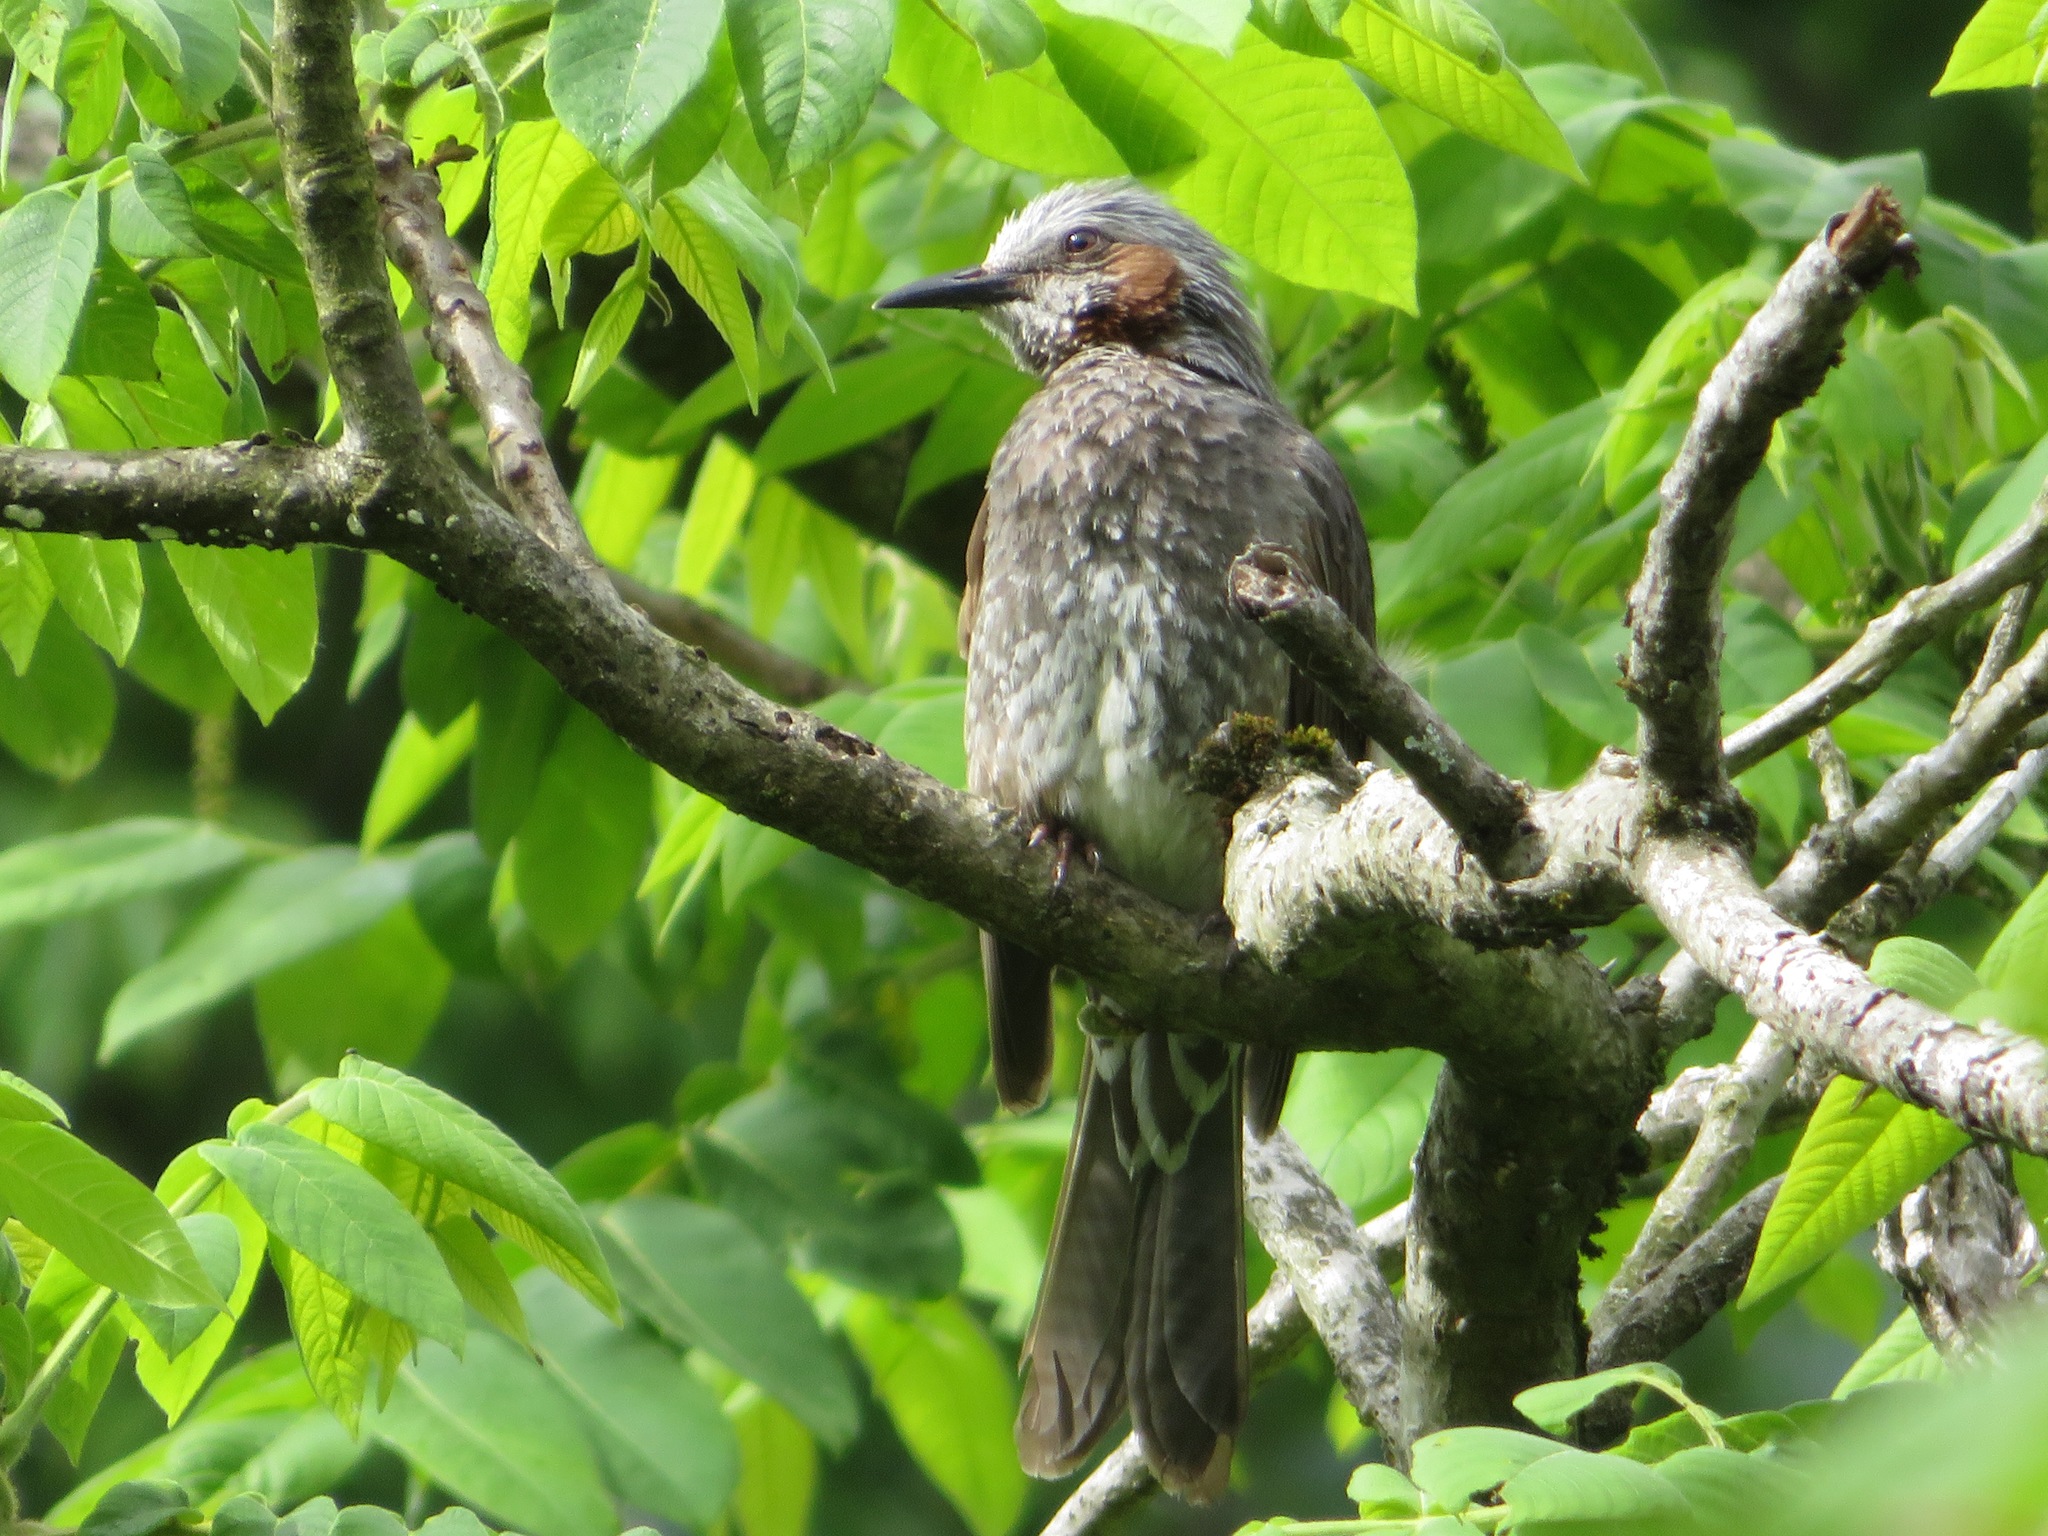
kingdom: Animalia
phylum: Chordata
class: Aves
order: Passeriformes
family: Pycnonotidae
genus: Hypsipetes
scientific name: Hypsipetes amaurotis
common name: Brown-eared bulbul
